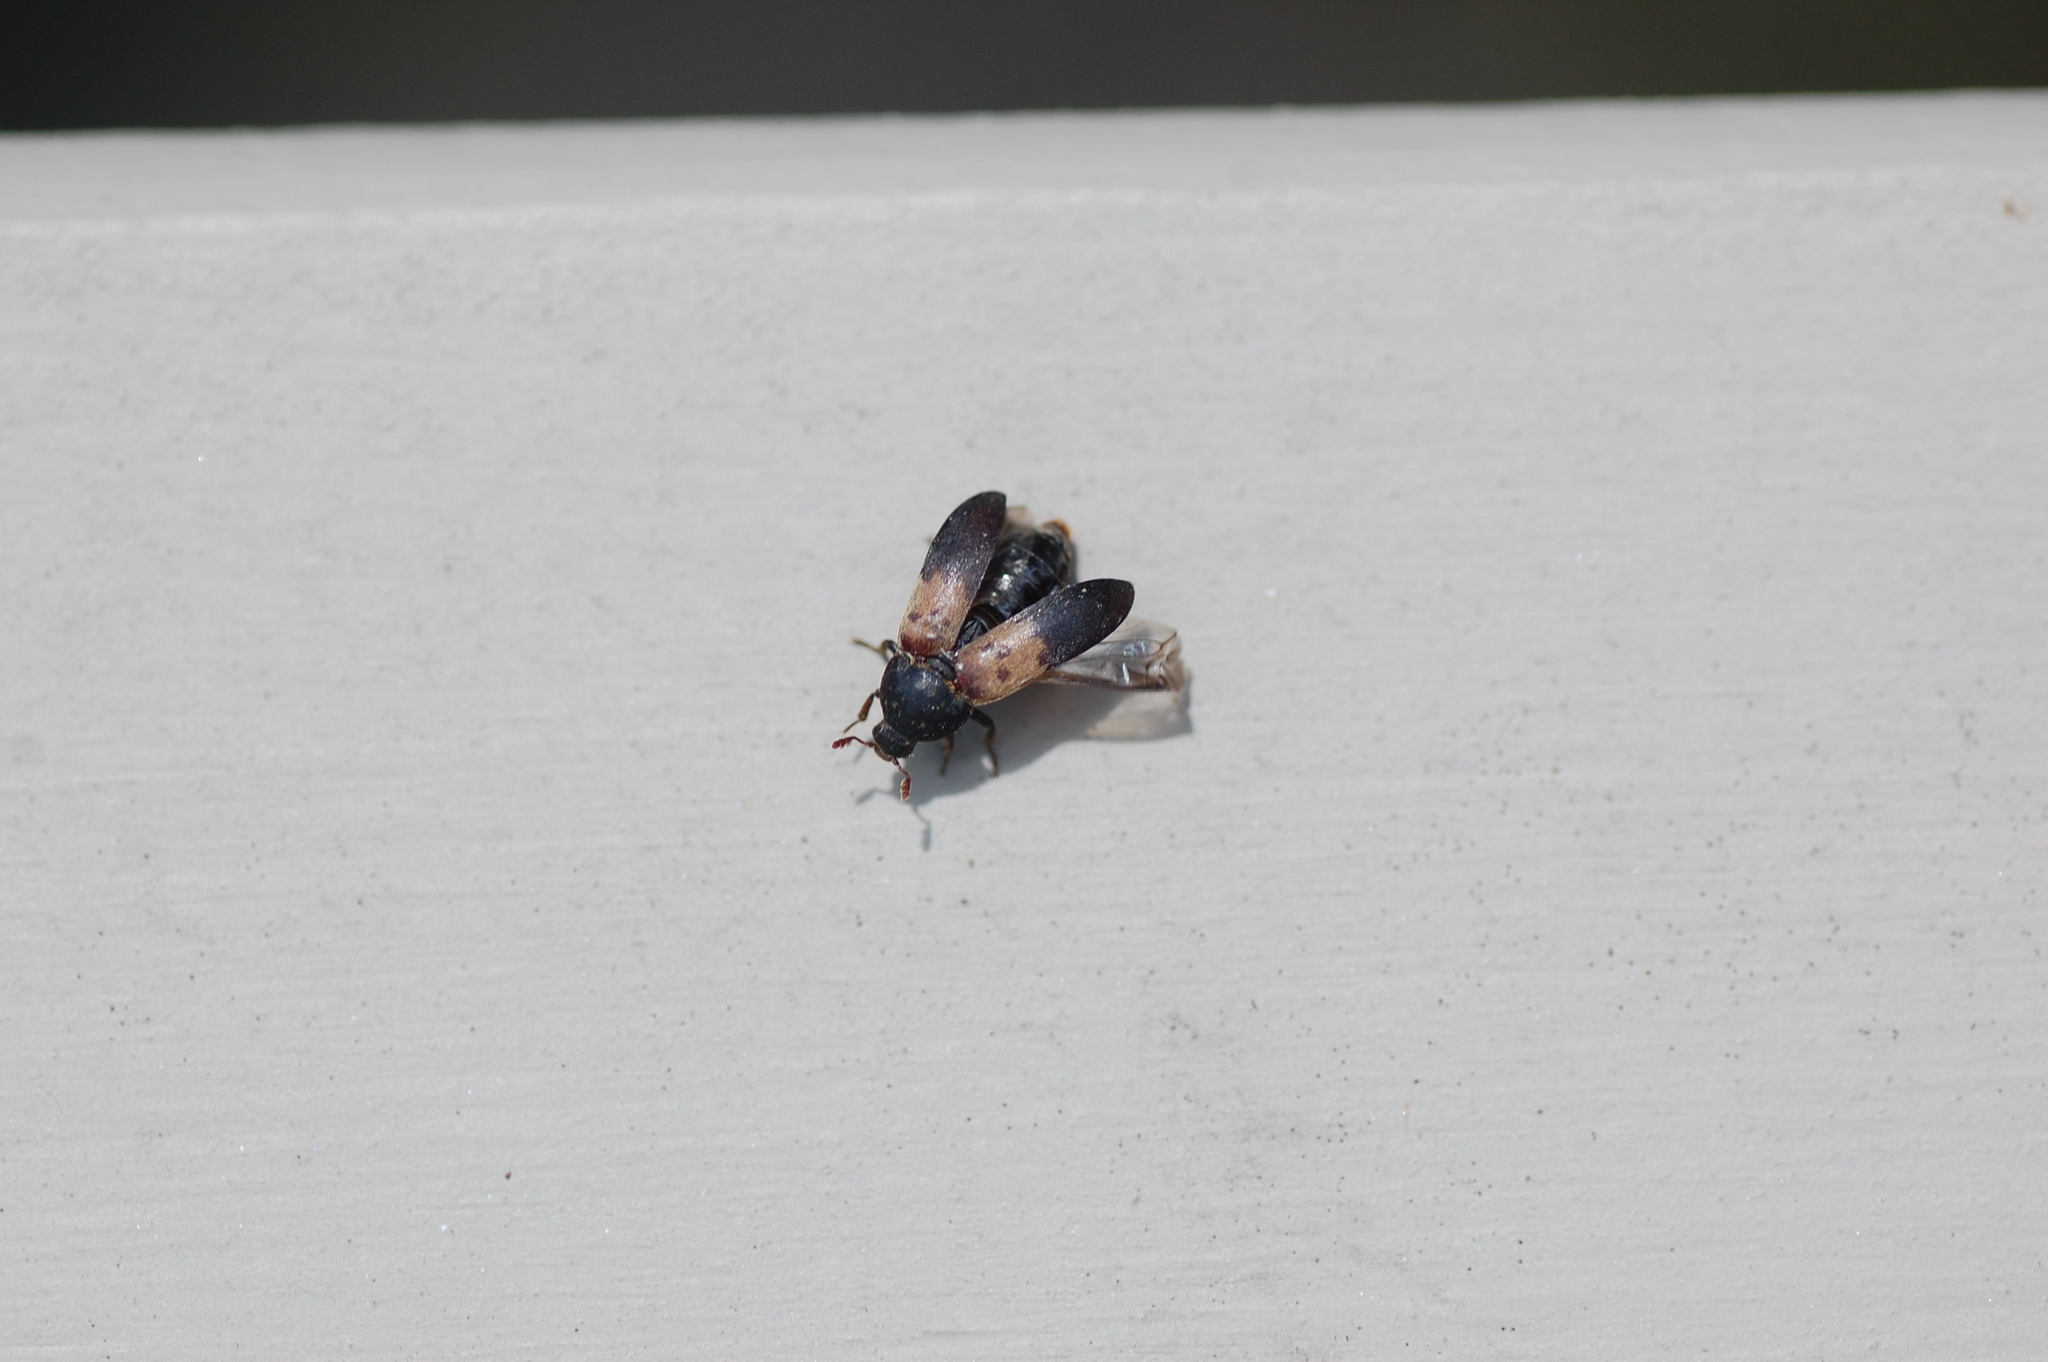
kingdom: Animalia
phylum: Arthropoda
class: Insecta
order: Coleoptera
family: Dermestidae
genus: Dermestes
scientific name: Dermestes lardarius
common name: Larder beetle
